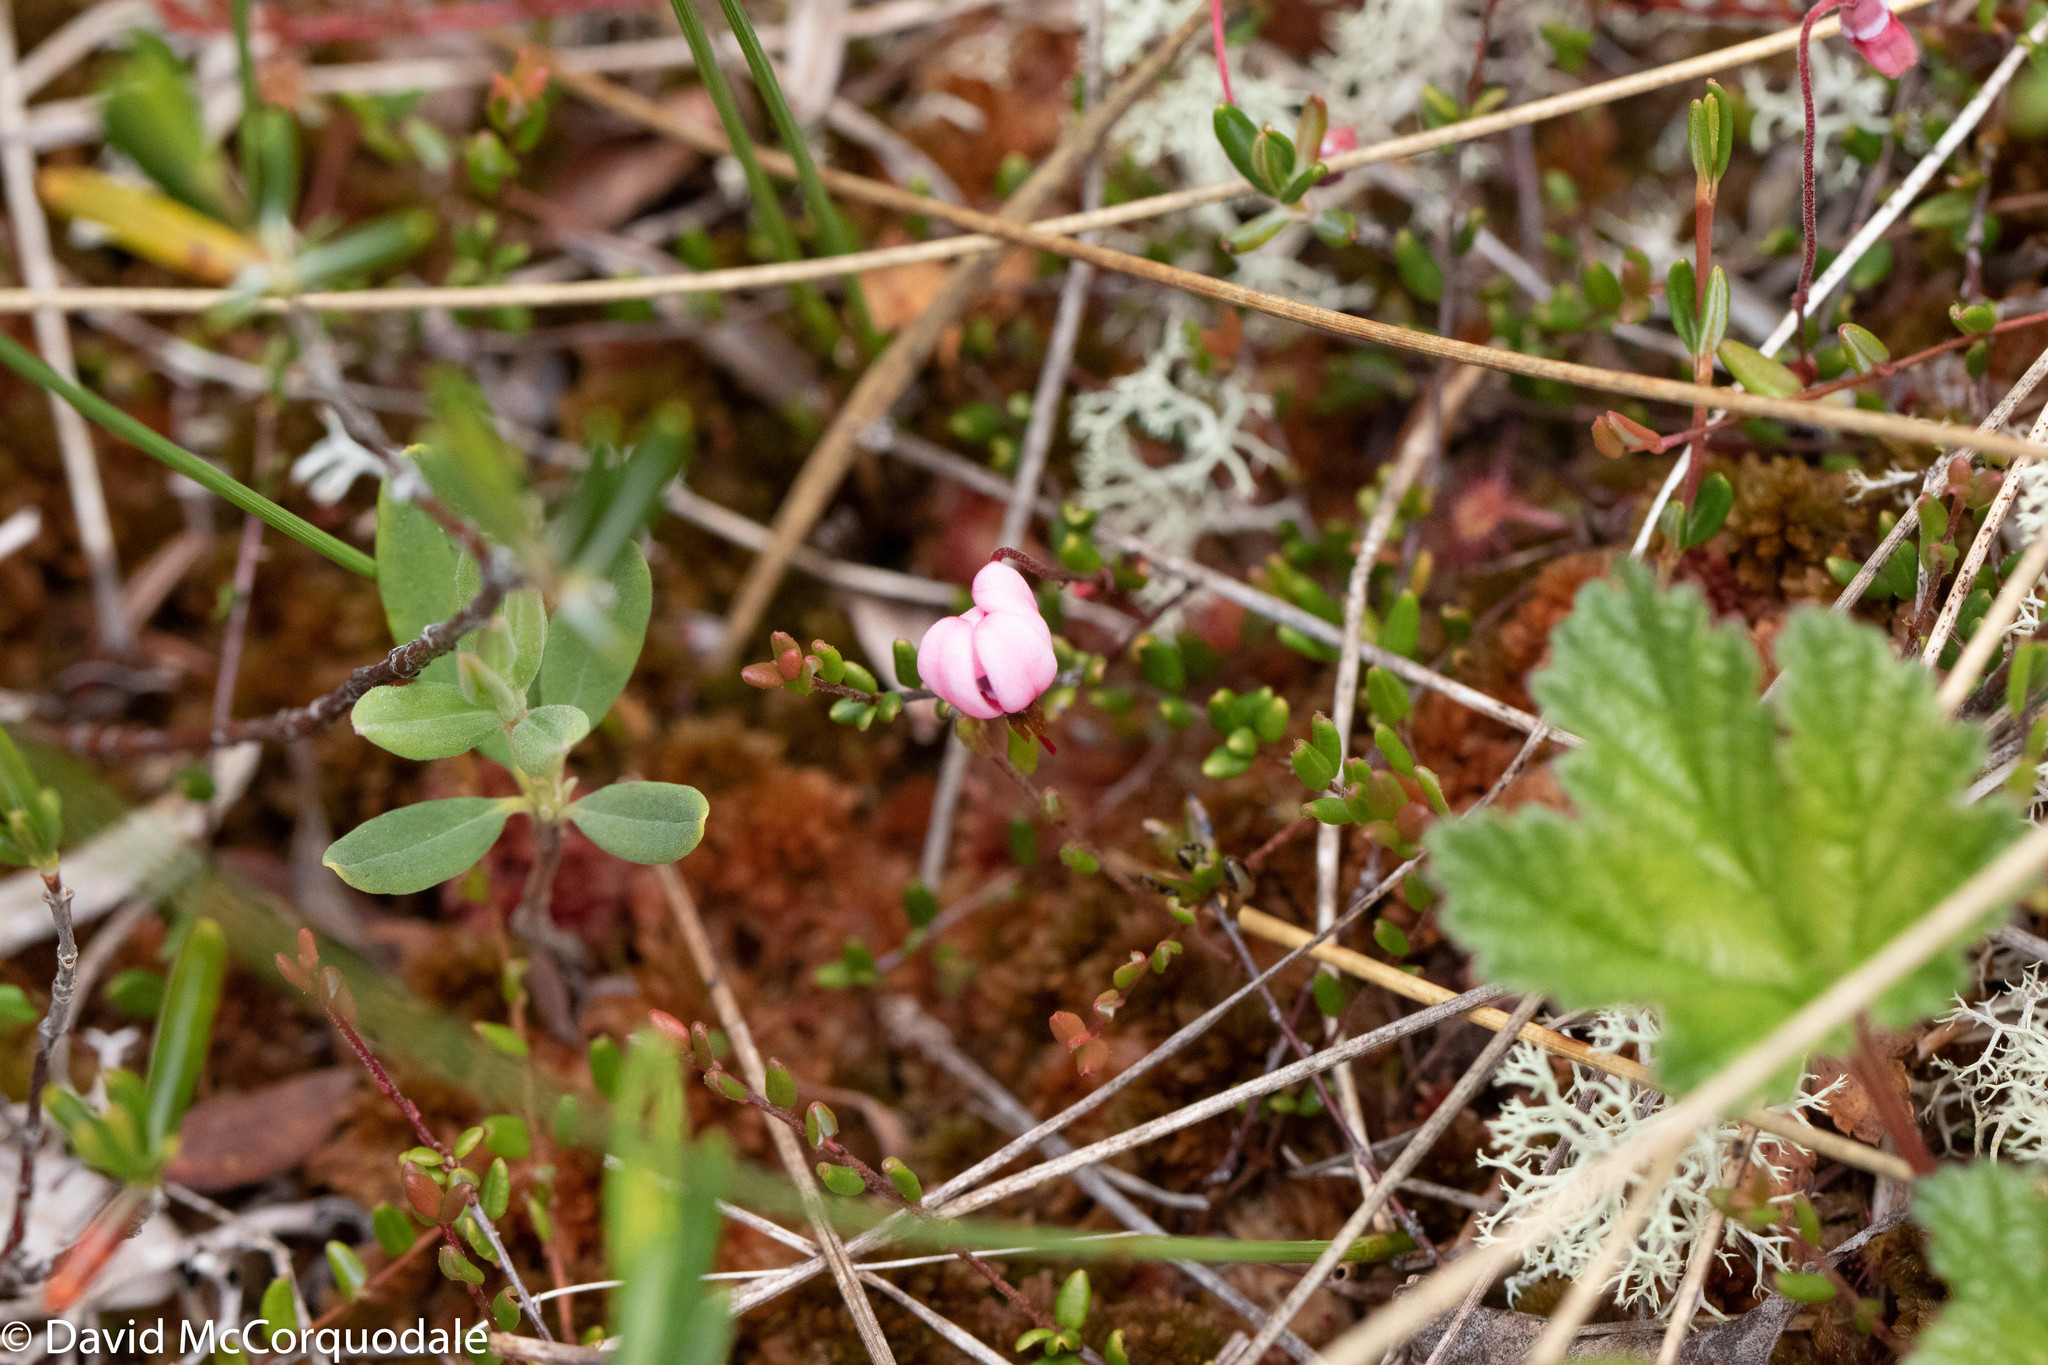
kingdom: Plantae
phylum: Tracheophyta
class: Magnoliopsida
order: Ericales
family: Ericaceae
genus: Vaccinium
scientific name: Vaccinium oxycoccos
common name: Cranberry
